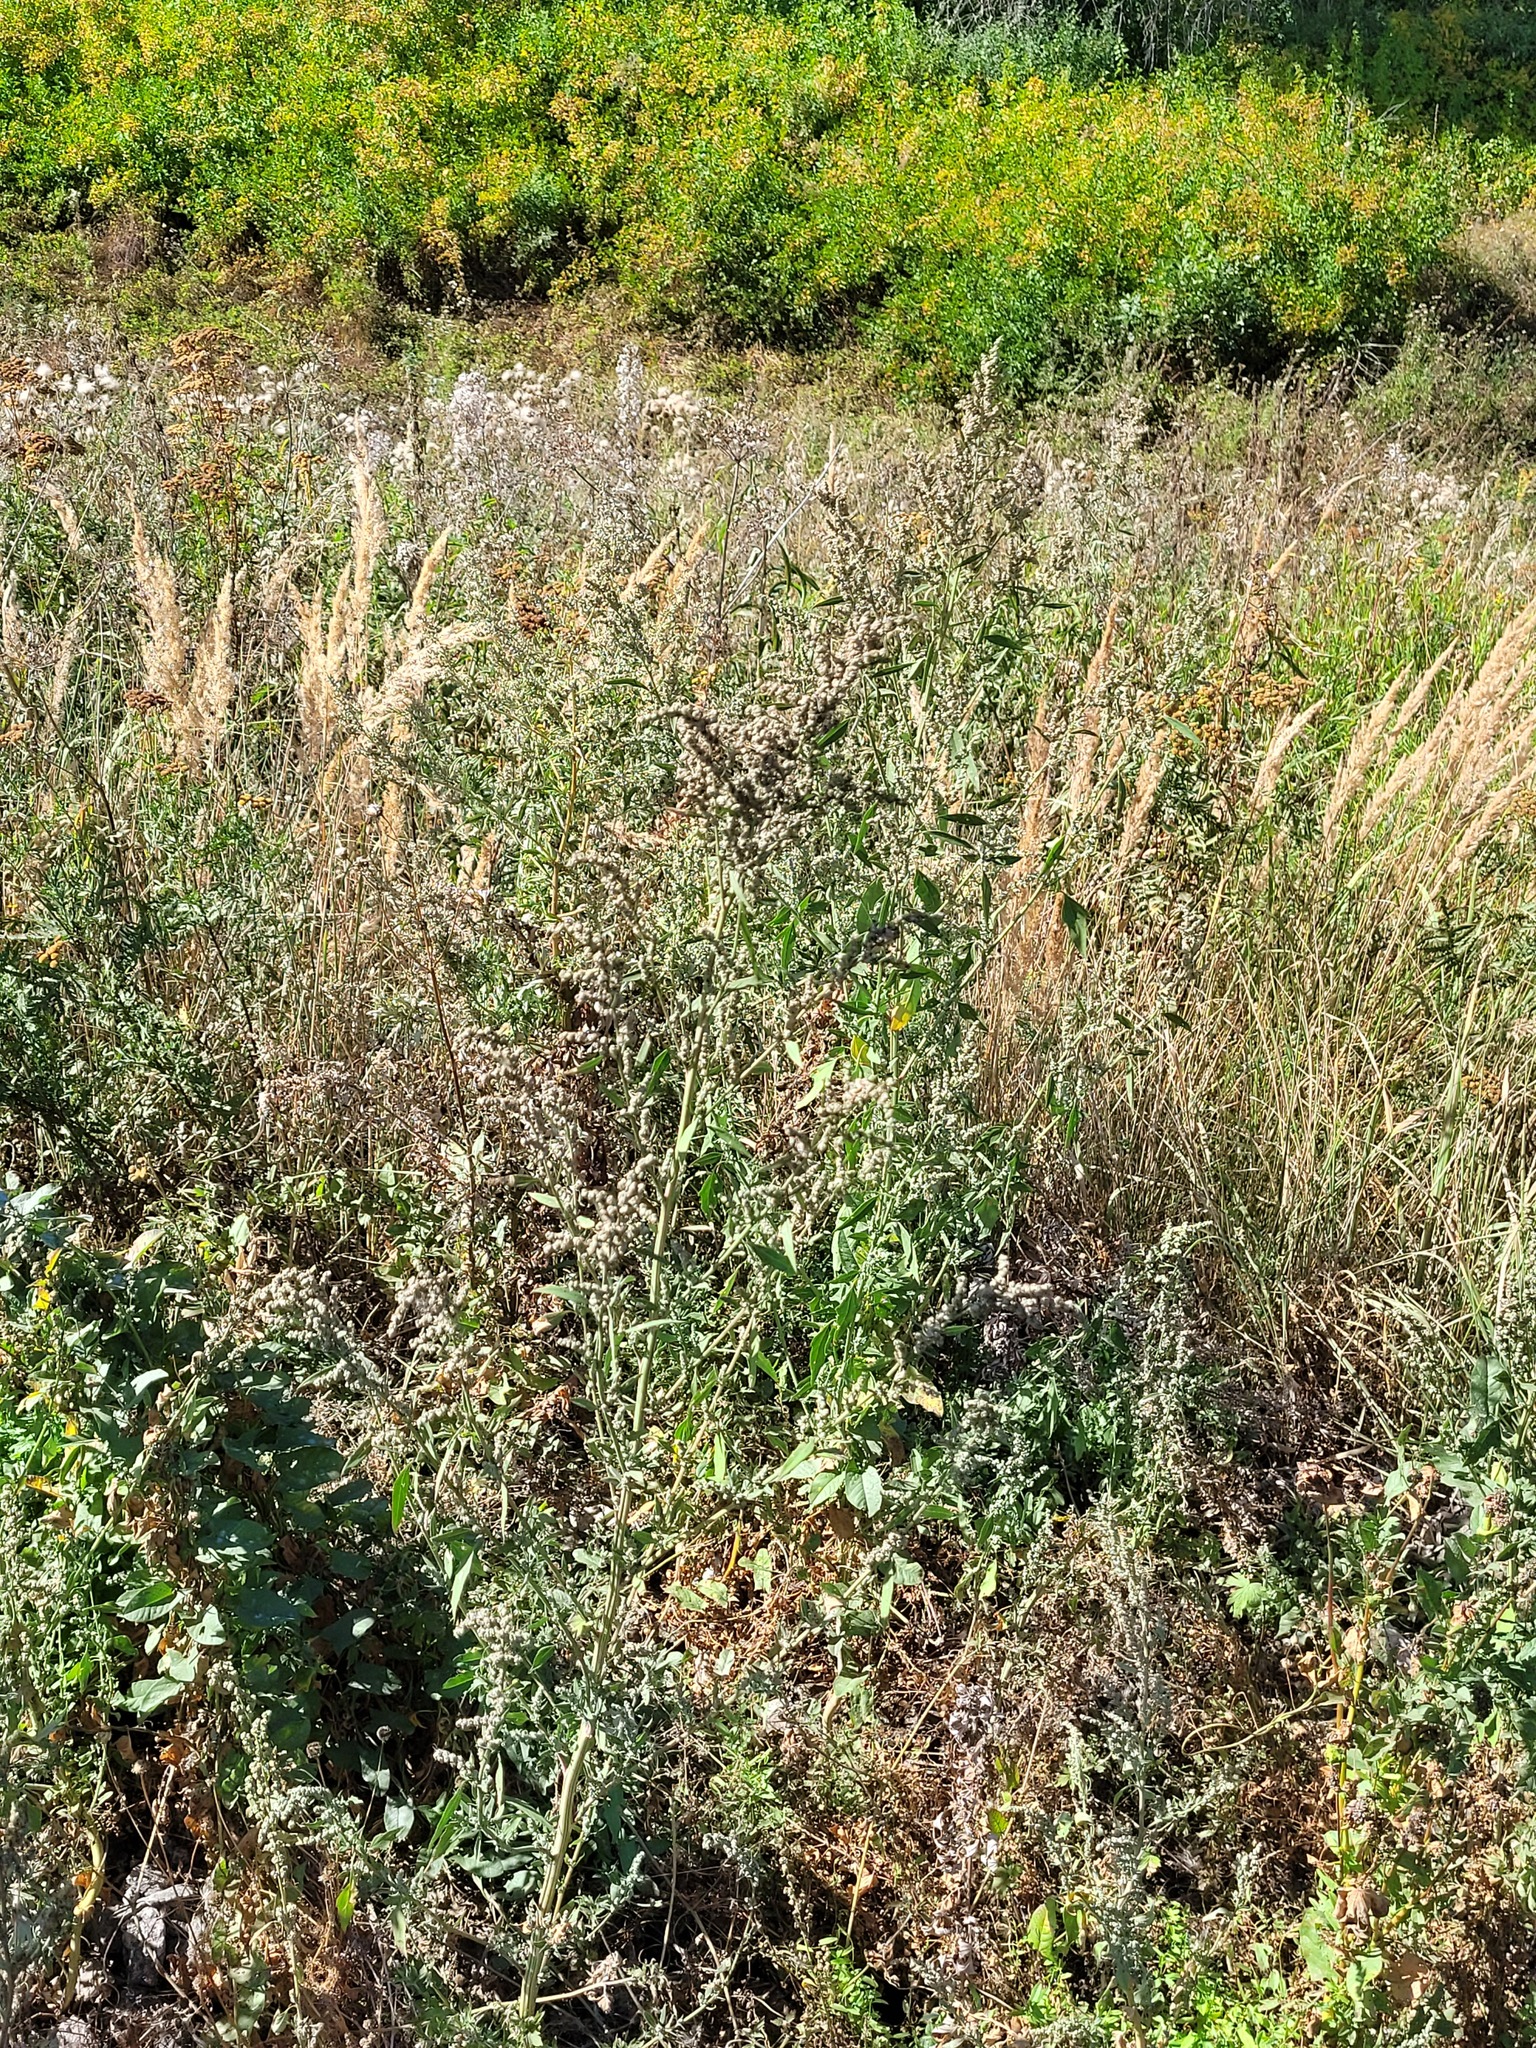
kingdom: Plantae
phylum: Tracheophyta
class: Magnoliopsida
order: Caryophyllales
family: Amaranthaceae
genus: Chenopodium
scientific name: Chenopodium album
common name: Fat-hen
